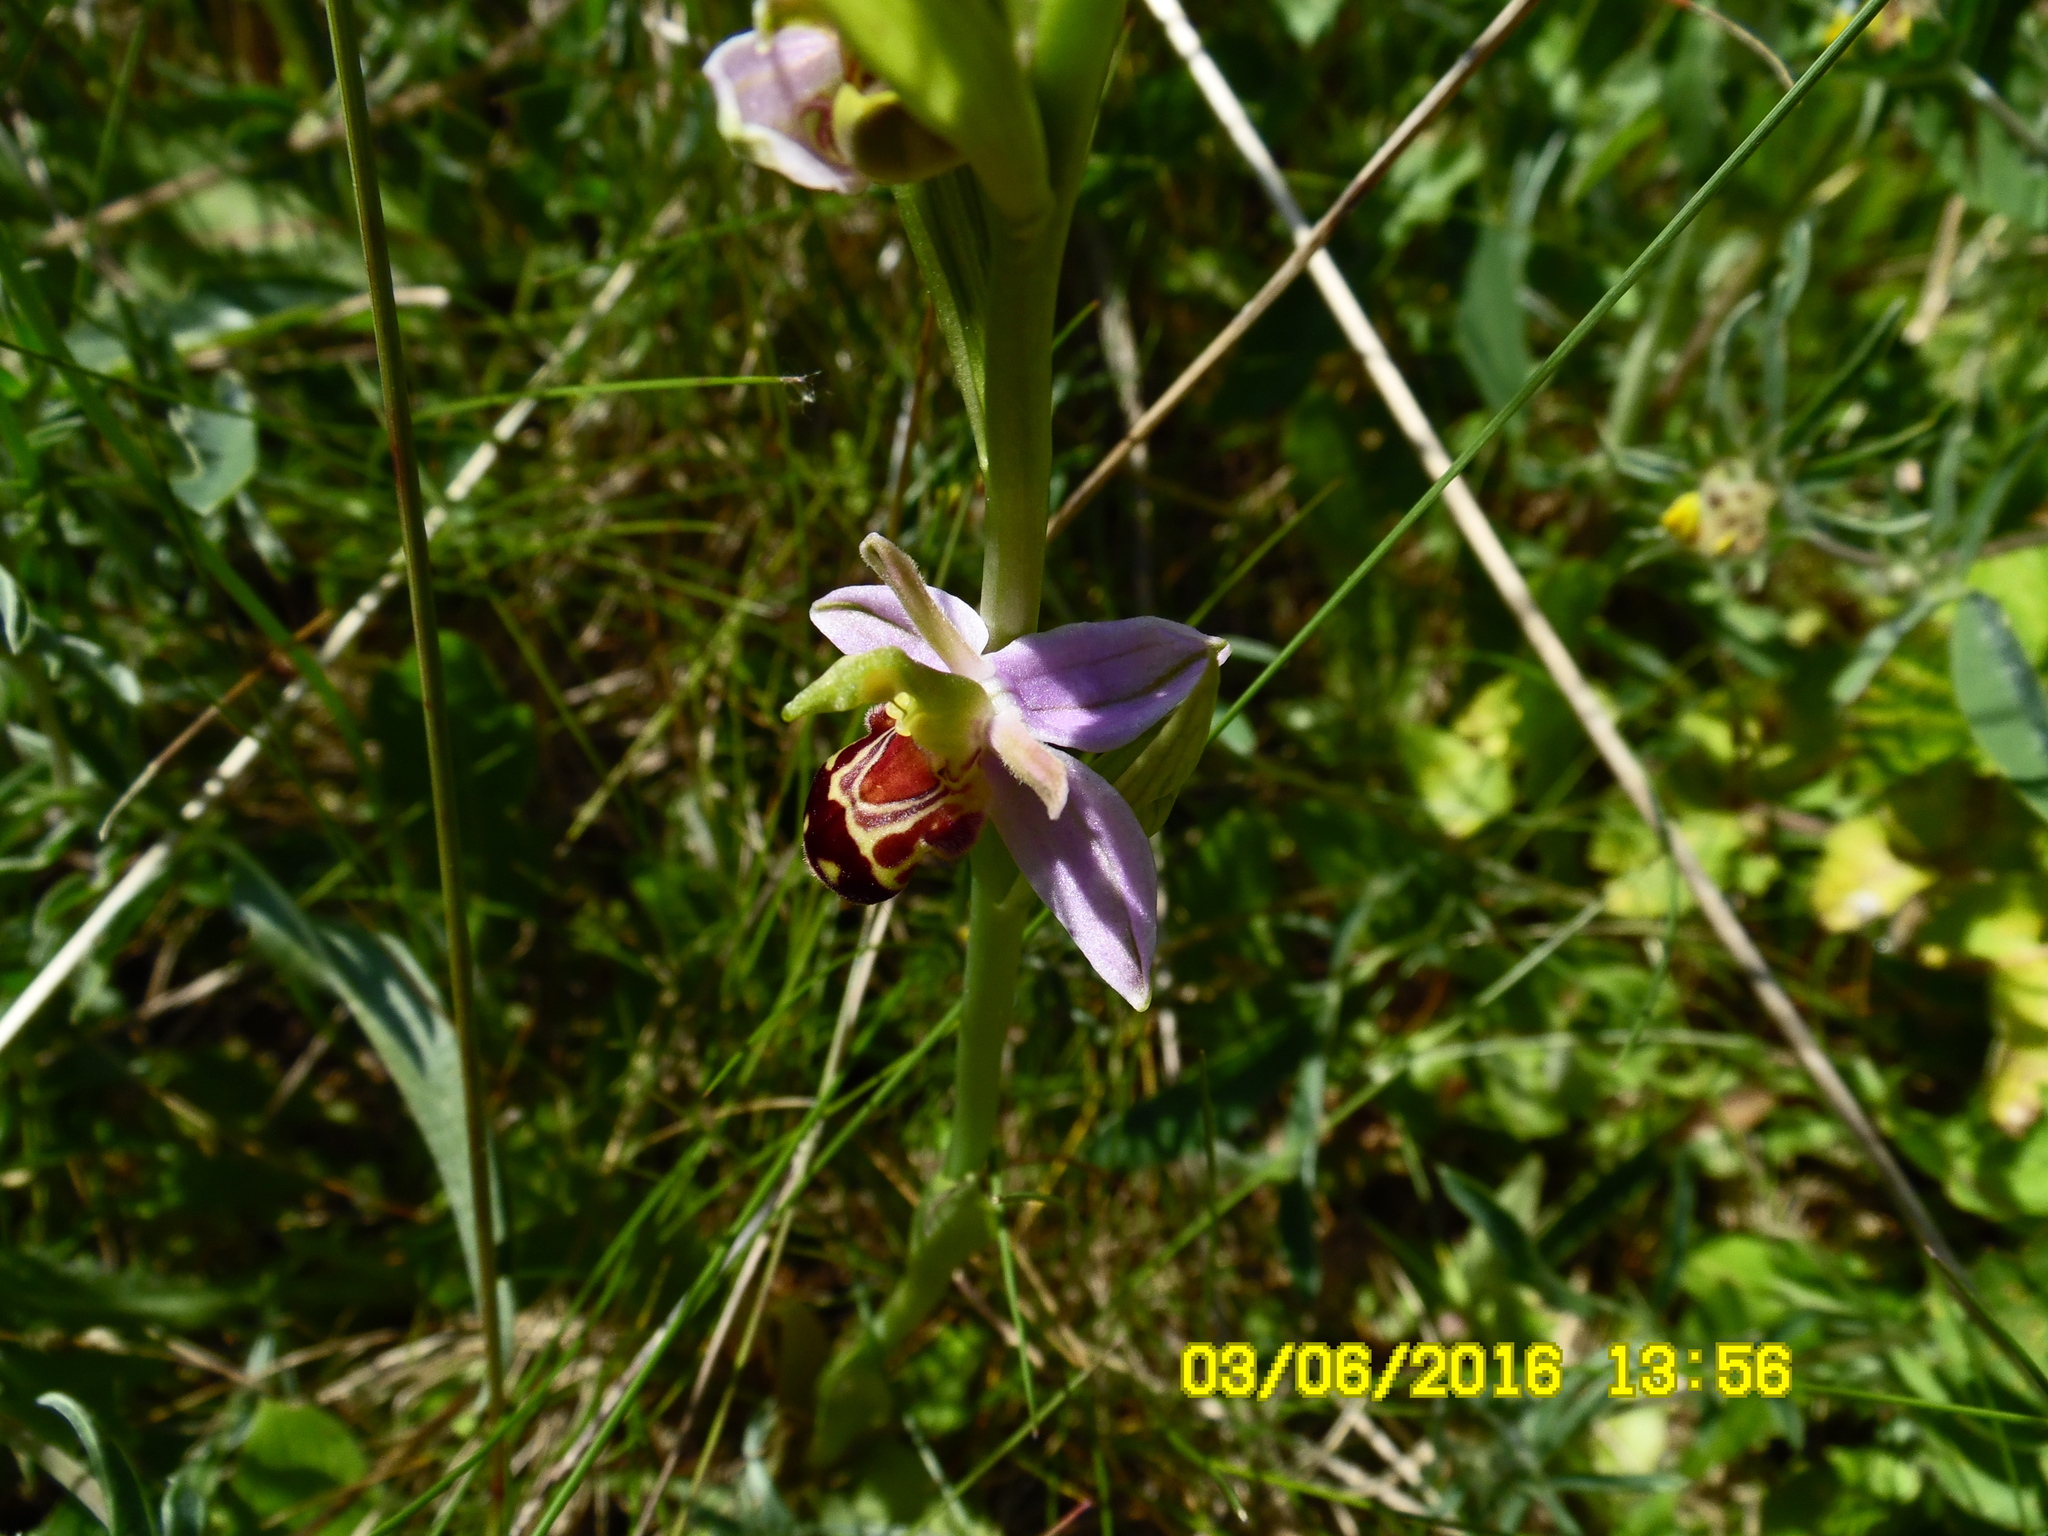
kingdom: Plantae
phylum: Tracheophyta
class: Liliopsida
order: Asparagales
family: Orchidaceae
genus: Ophrys
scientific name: Ophrys apifera
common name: Bee orchid
